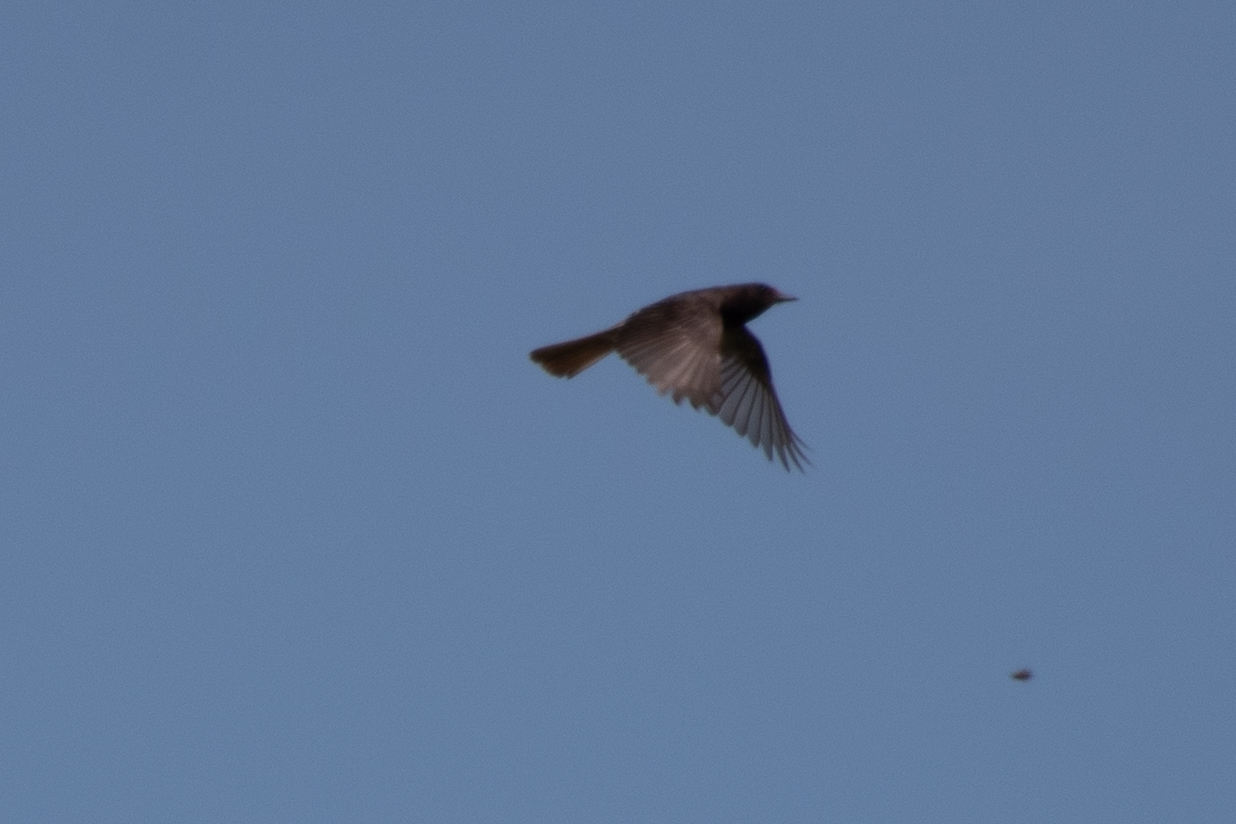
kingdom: Animalia
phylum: Chordata
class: Aves
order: Passeriformes
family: Tyrannidae
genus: Sayornis
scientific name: Sayornis nigricans
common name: Black phoebe
